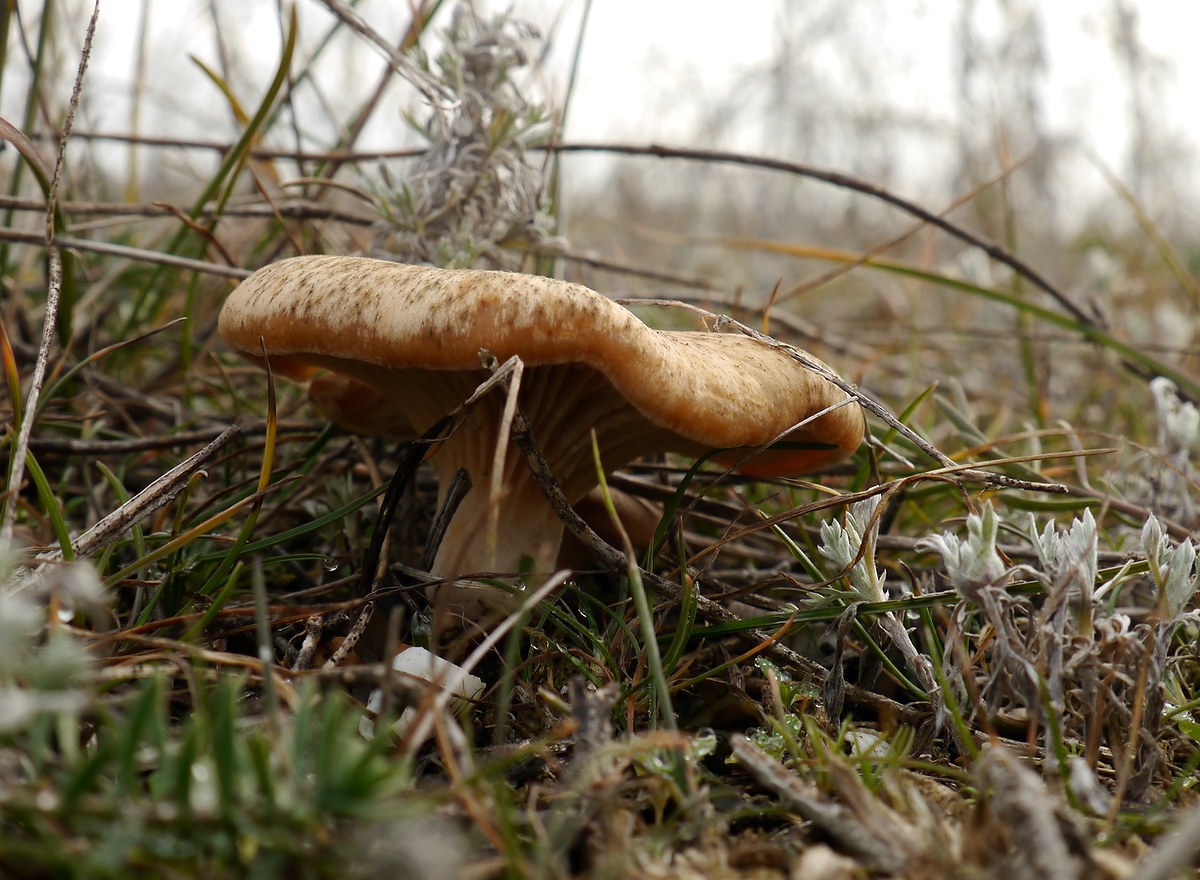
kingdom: Fungi
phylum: Basidiomycota
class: Agaricomycetes
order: Agaricales
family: Pleurotaceae
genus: Pleurotus
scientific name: Pleurotus eryngii
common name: King oyster
